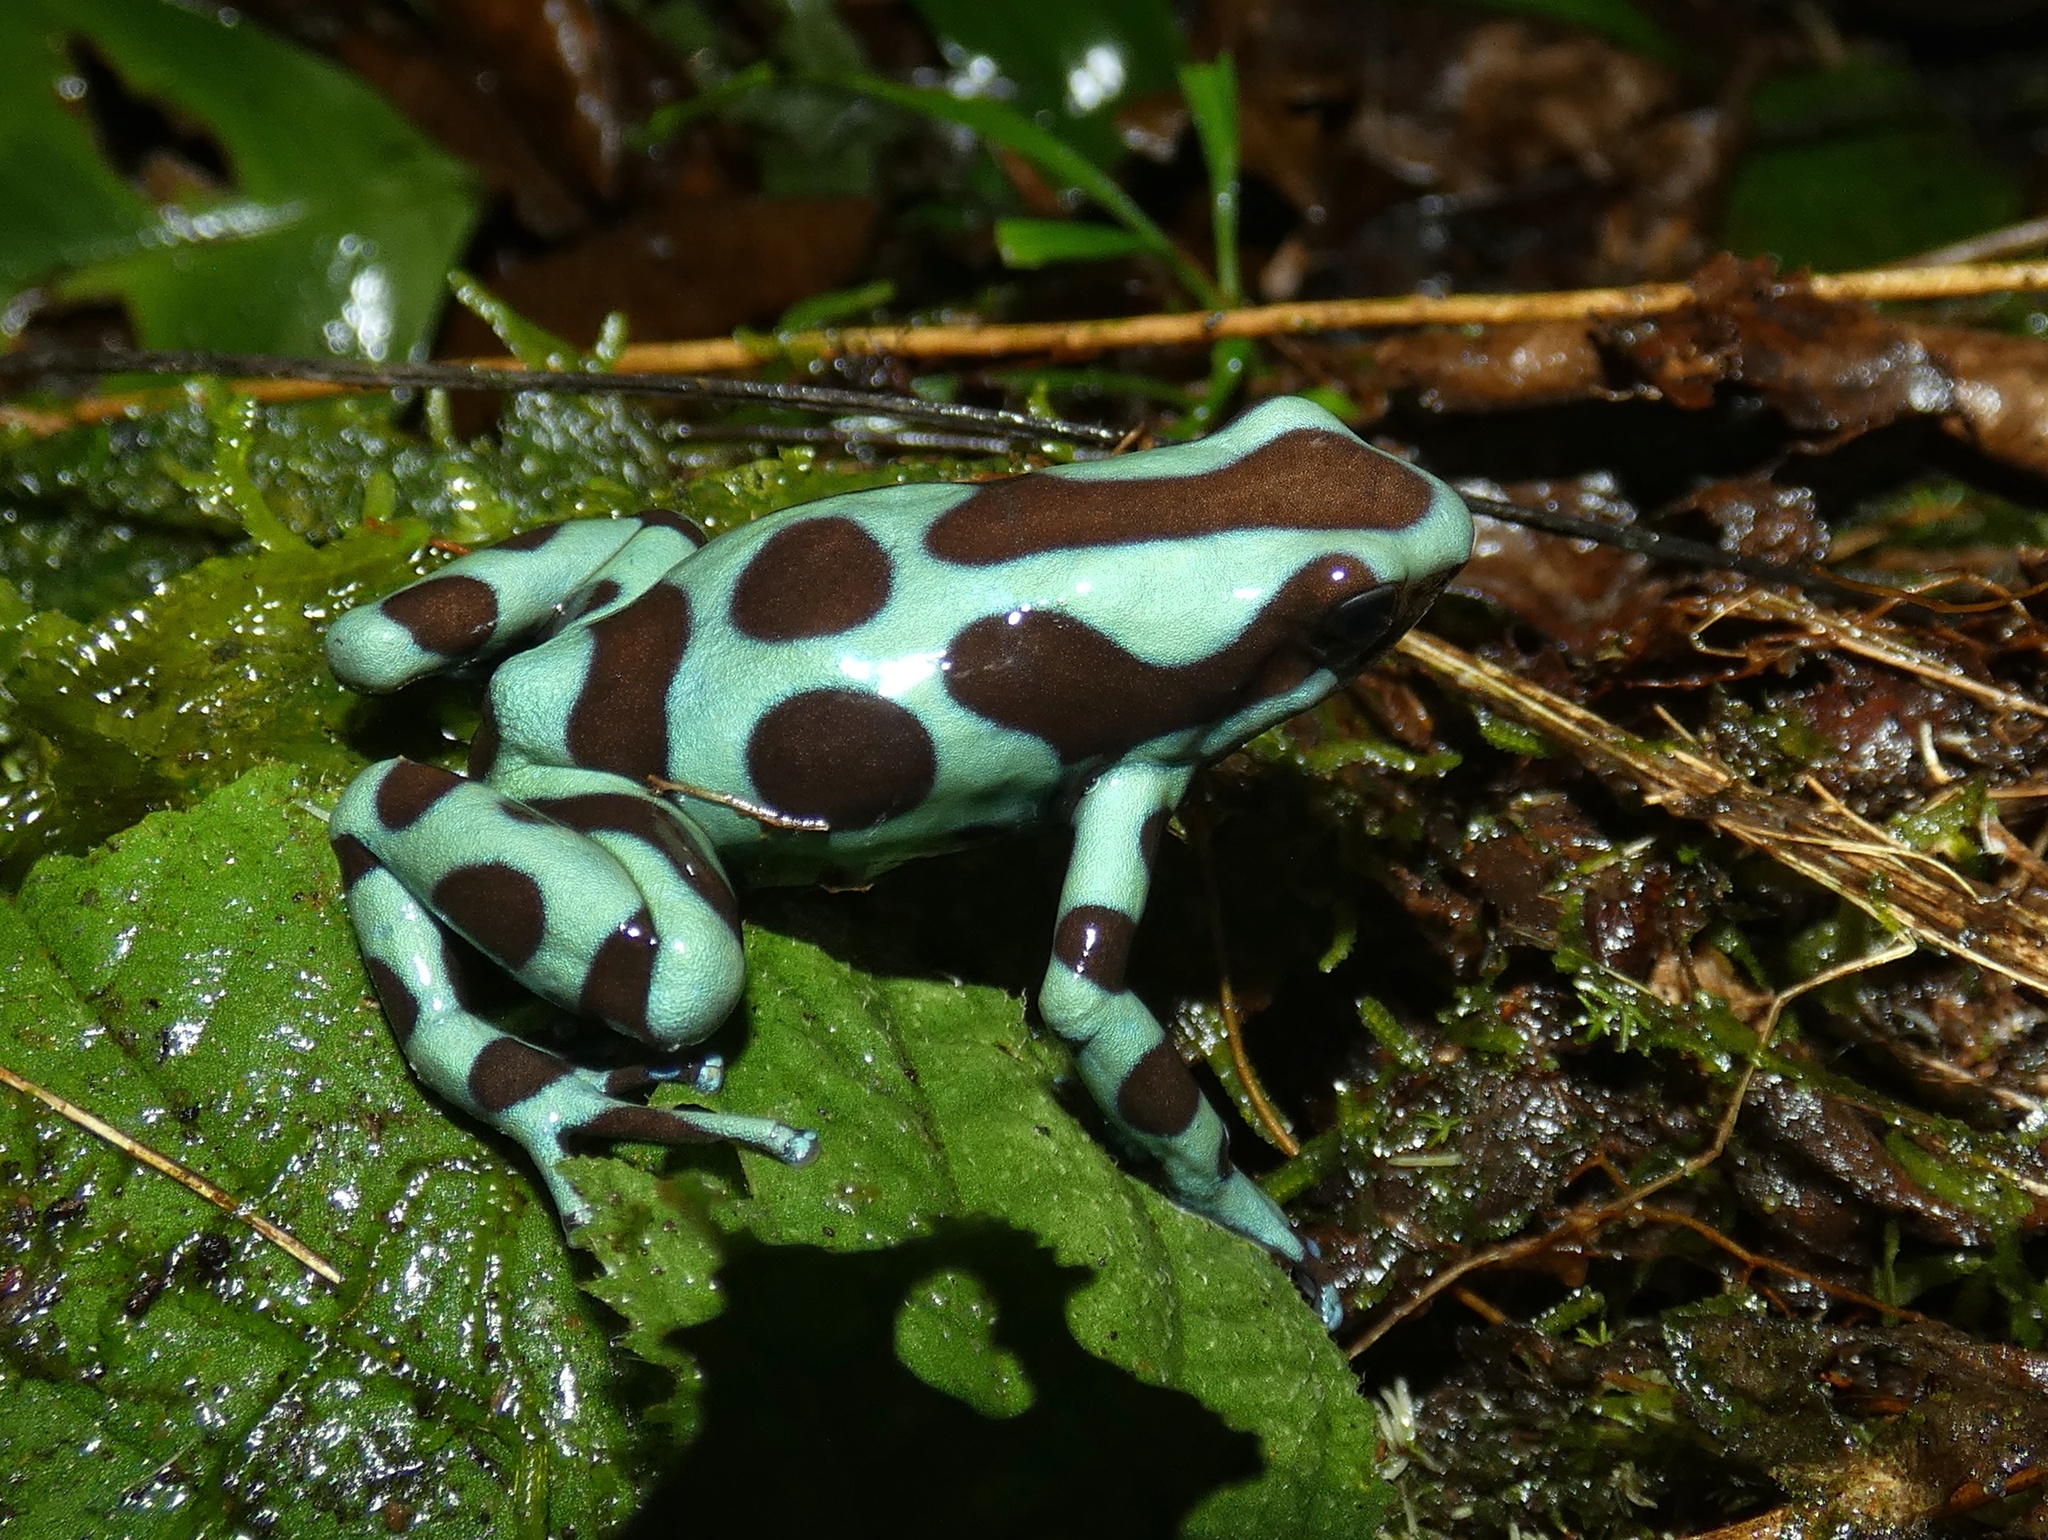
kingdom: Animalia
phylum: Chordata
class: Amphibia
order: Anura
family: Dendrobatidae
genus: Dendrobates
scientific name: Dendrobates auratus
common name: Green and black poison dart frog
